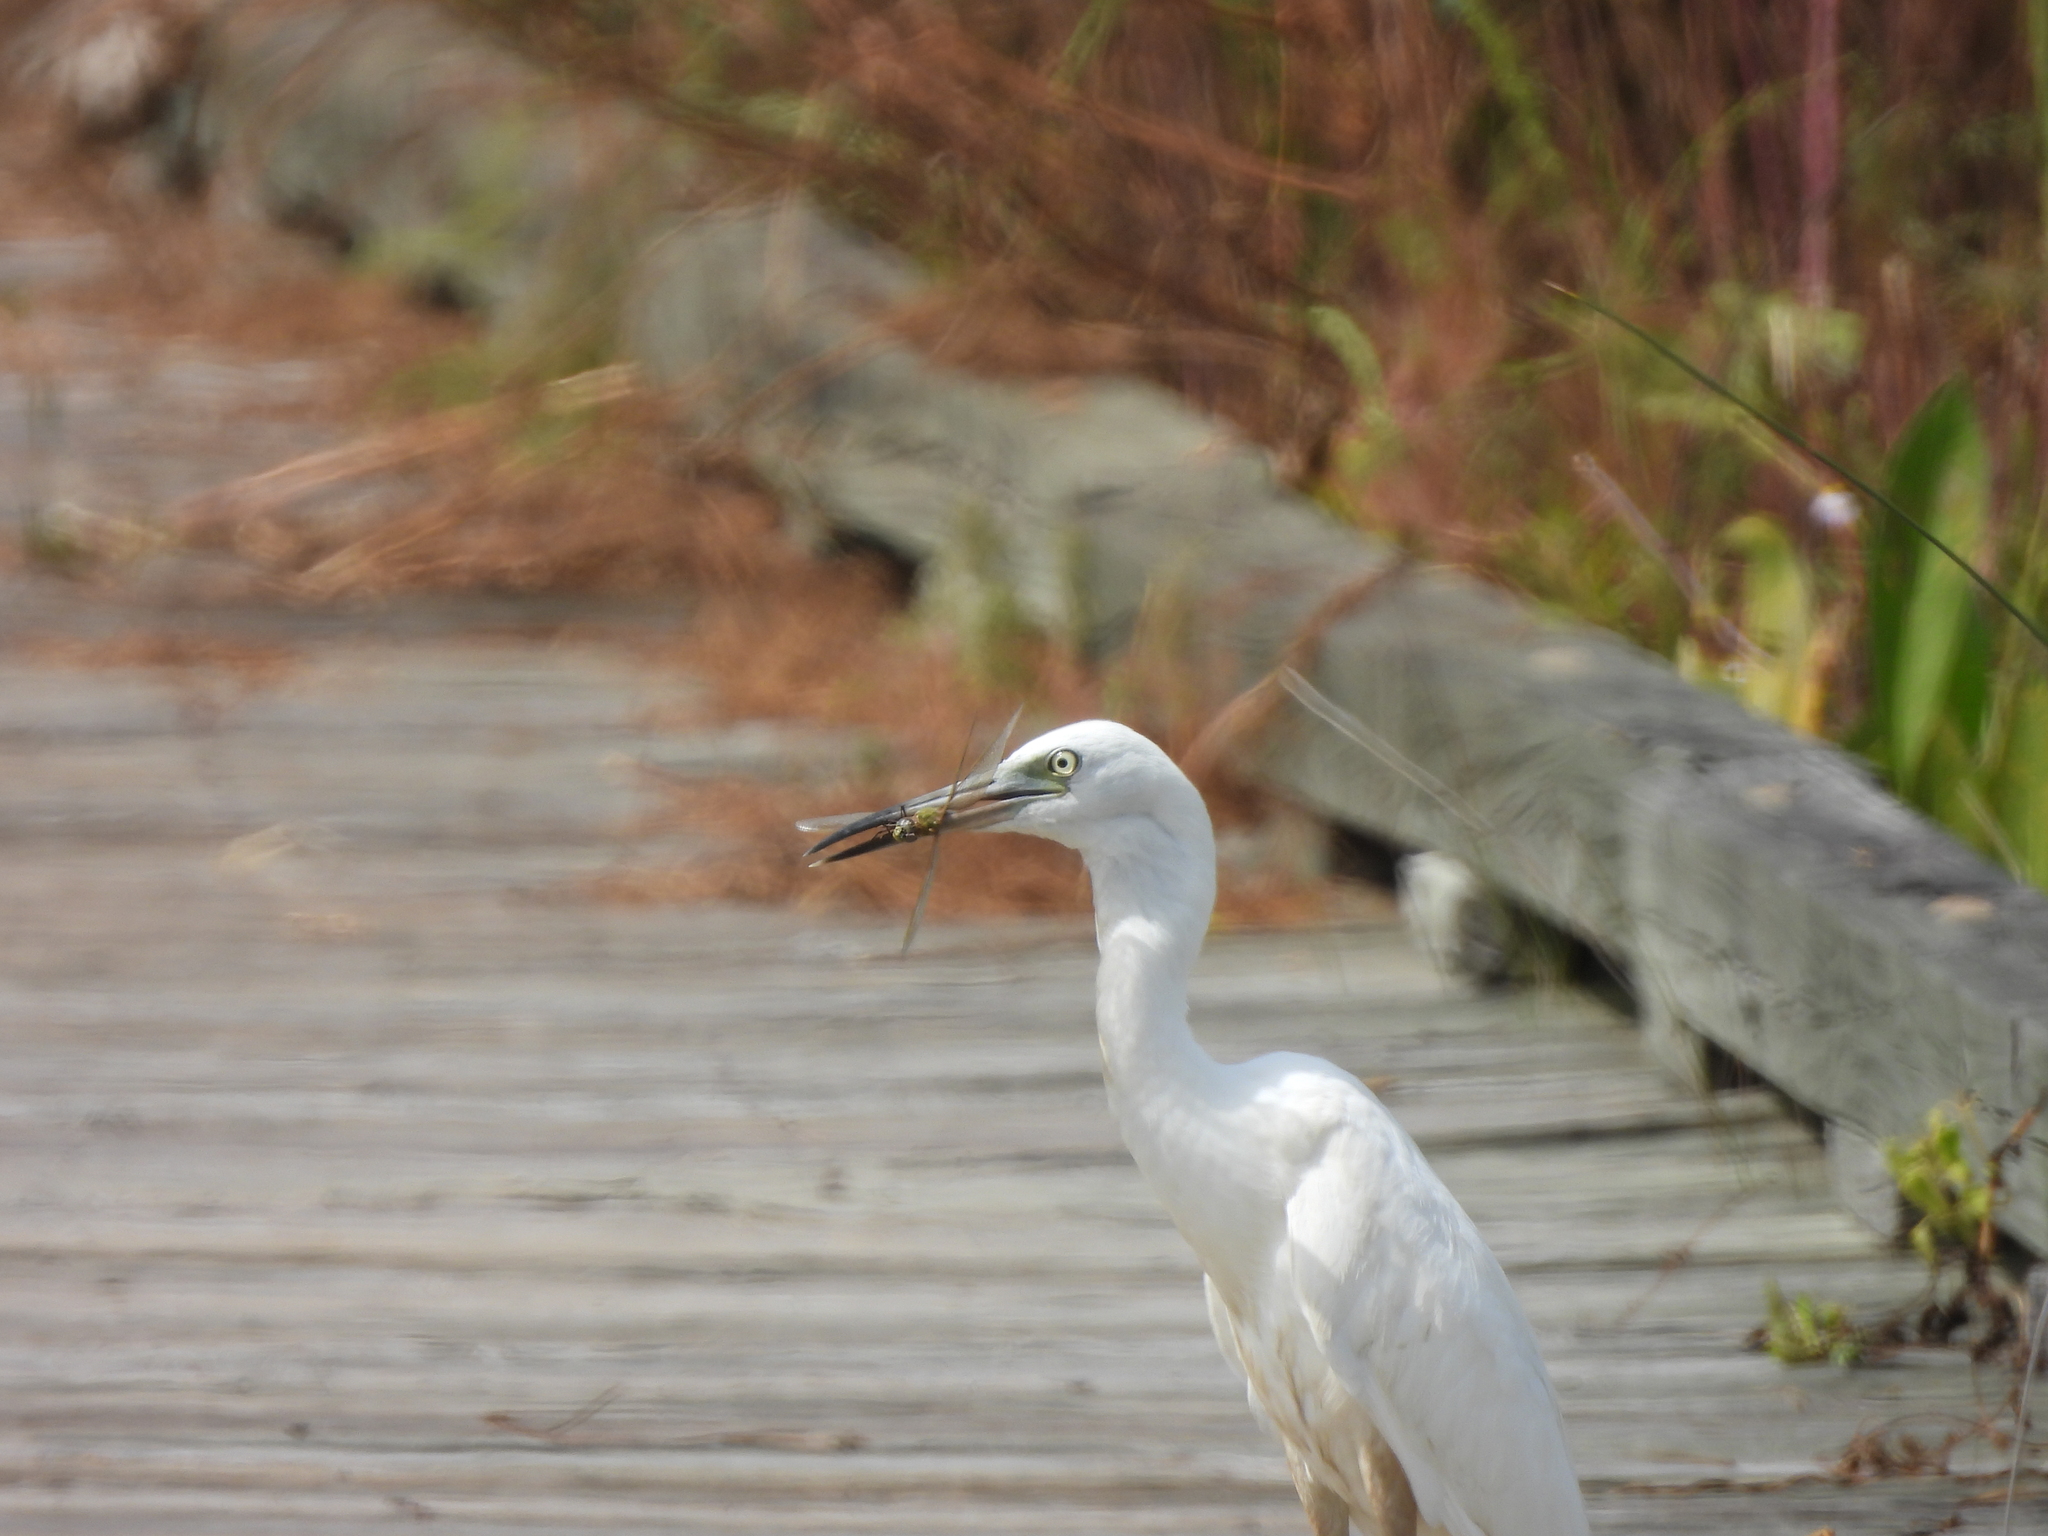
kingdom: Animalia
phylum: Chordata
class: Aves
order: Pelecaniformes
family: Ardeidae
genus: Egretta
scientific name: Egretta caerulea
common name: Little blue heron
